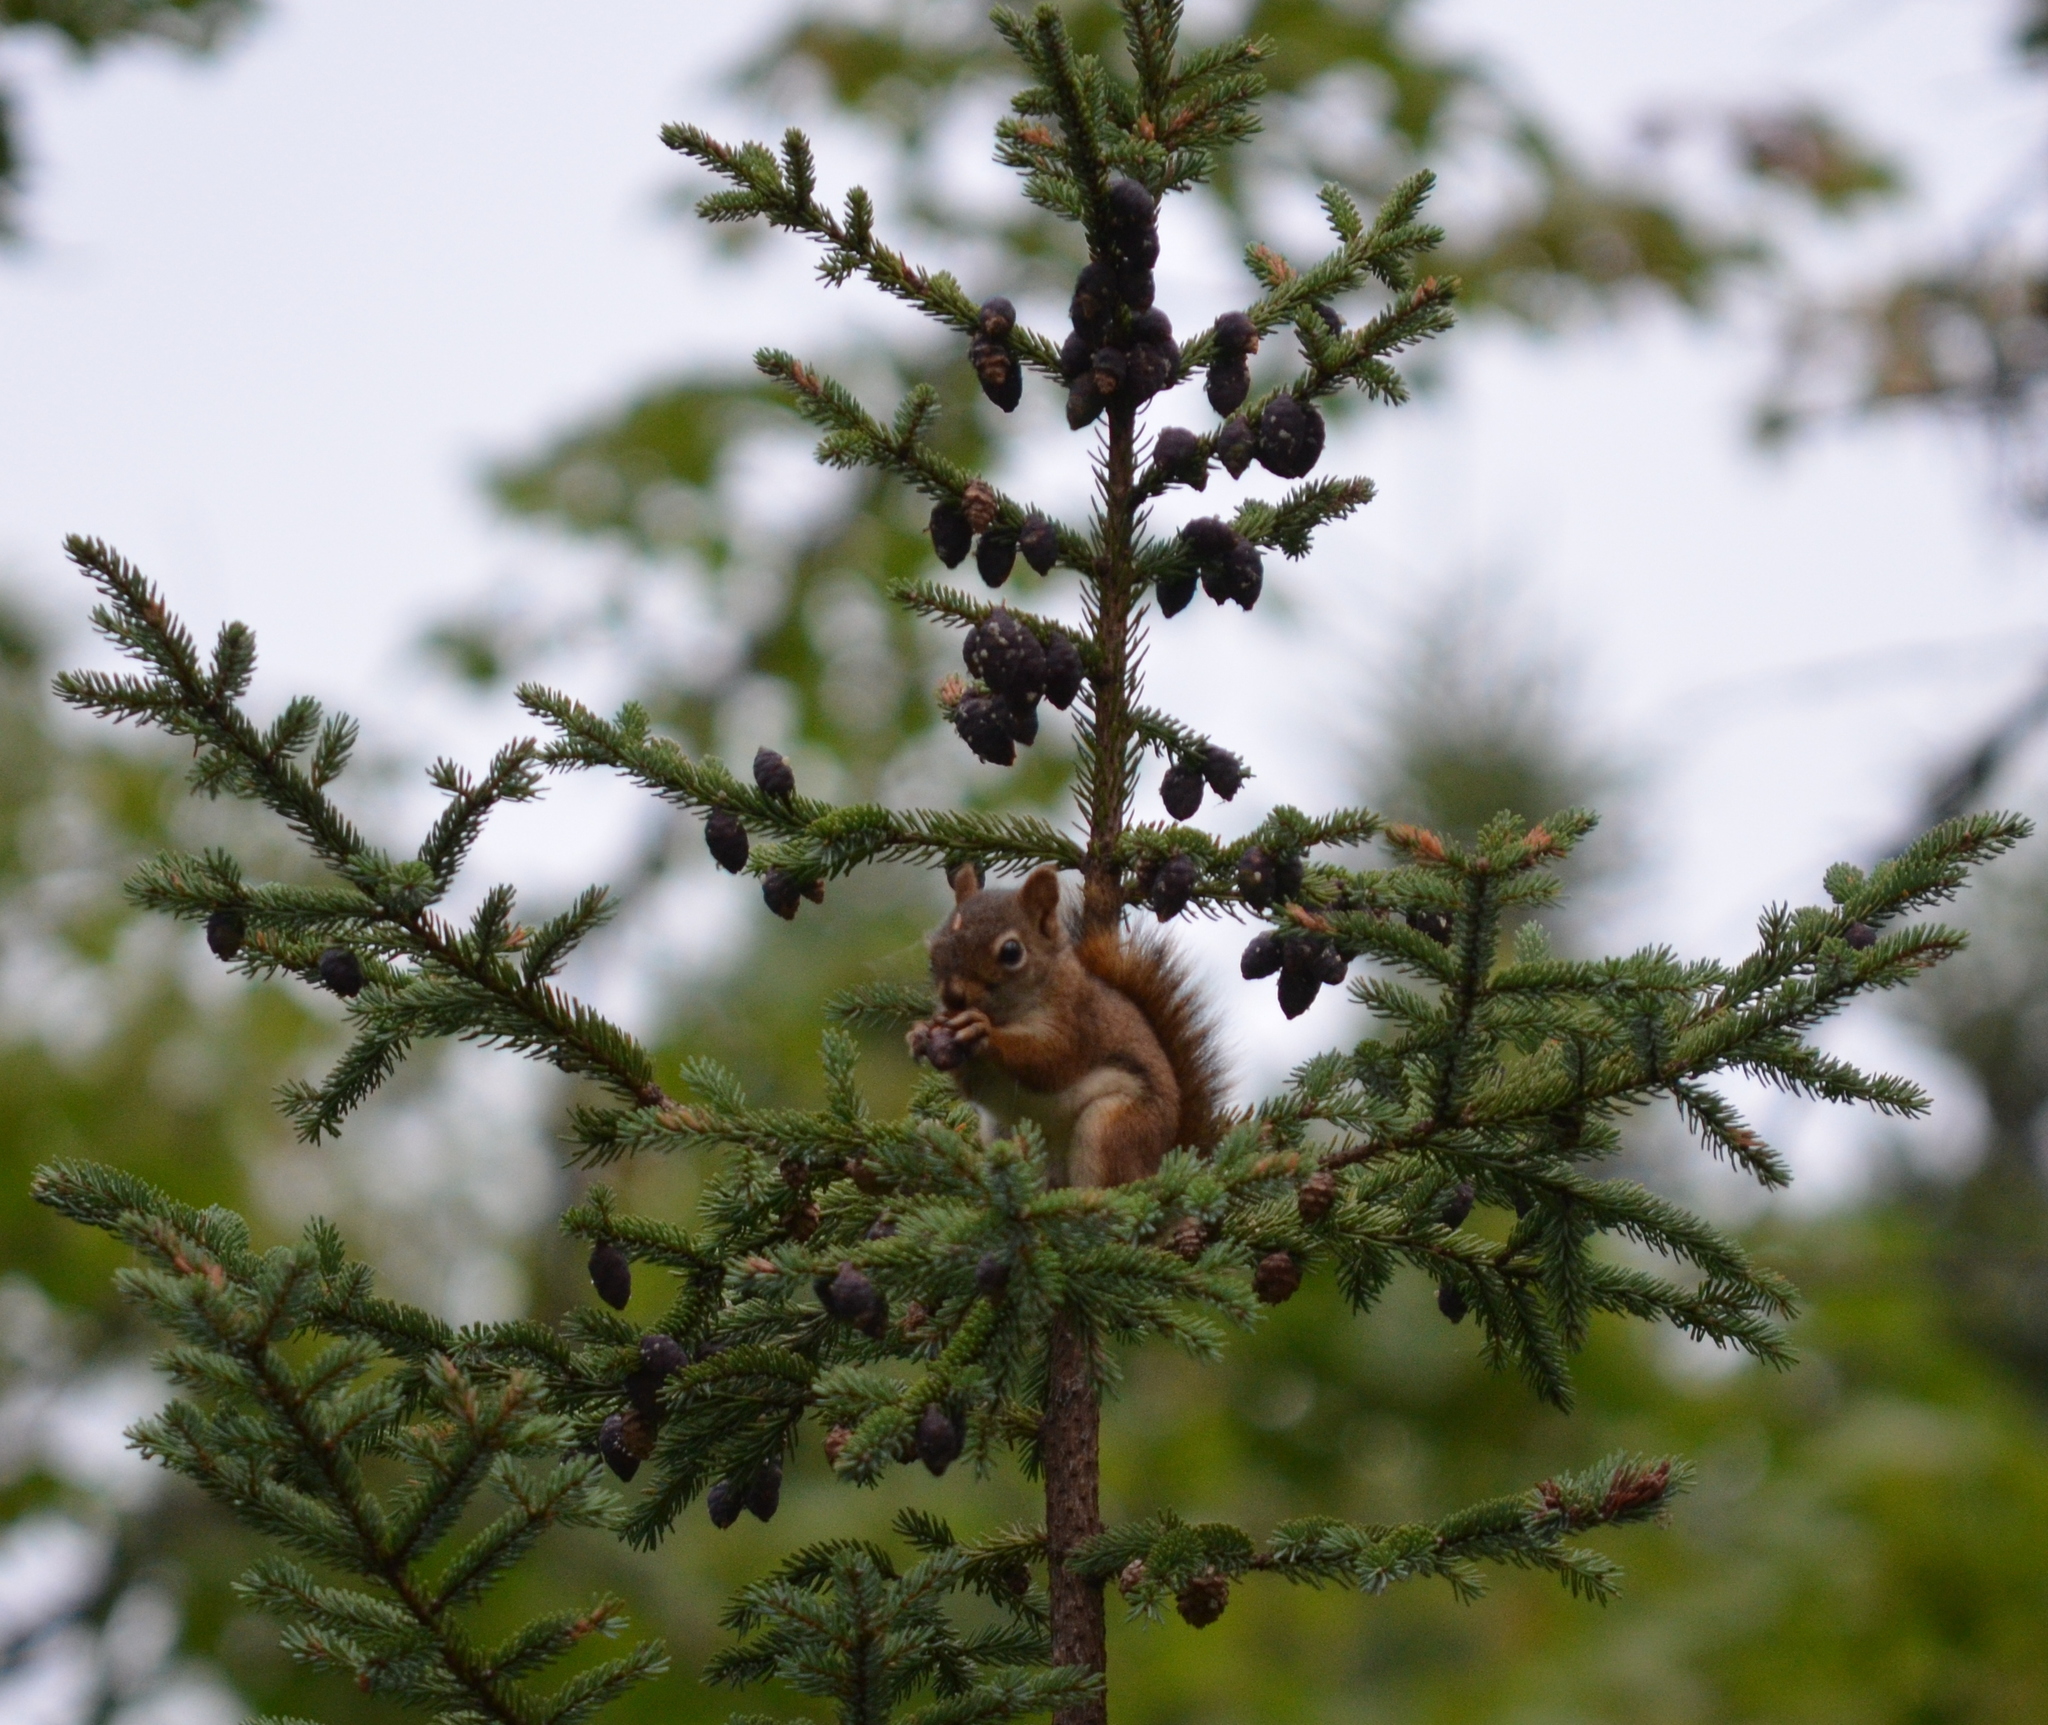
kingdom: Animalia
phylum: Chordata
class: Mammalia
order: Rodentia
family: Sciuridae
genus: Tamiasciurus
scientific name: Tamiasciurus hudsonicus
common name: Red squirrel
